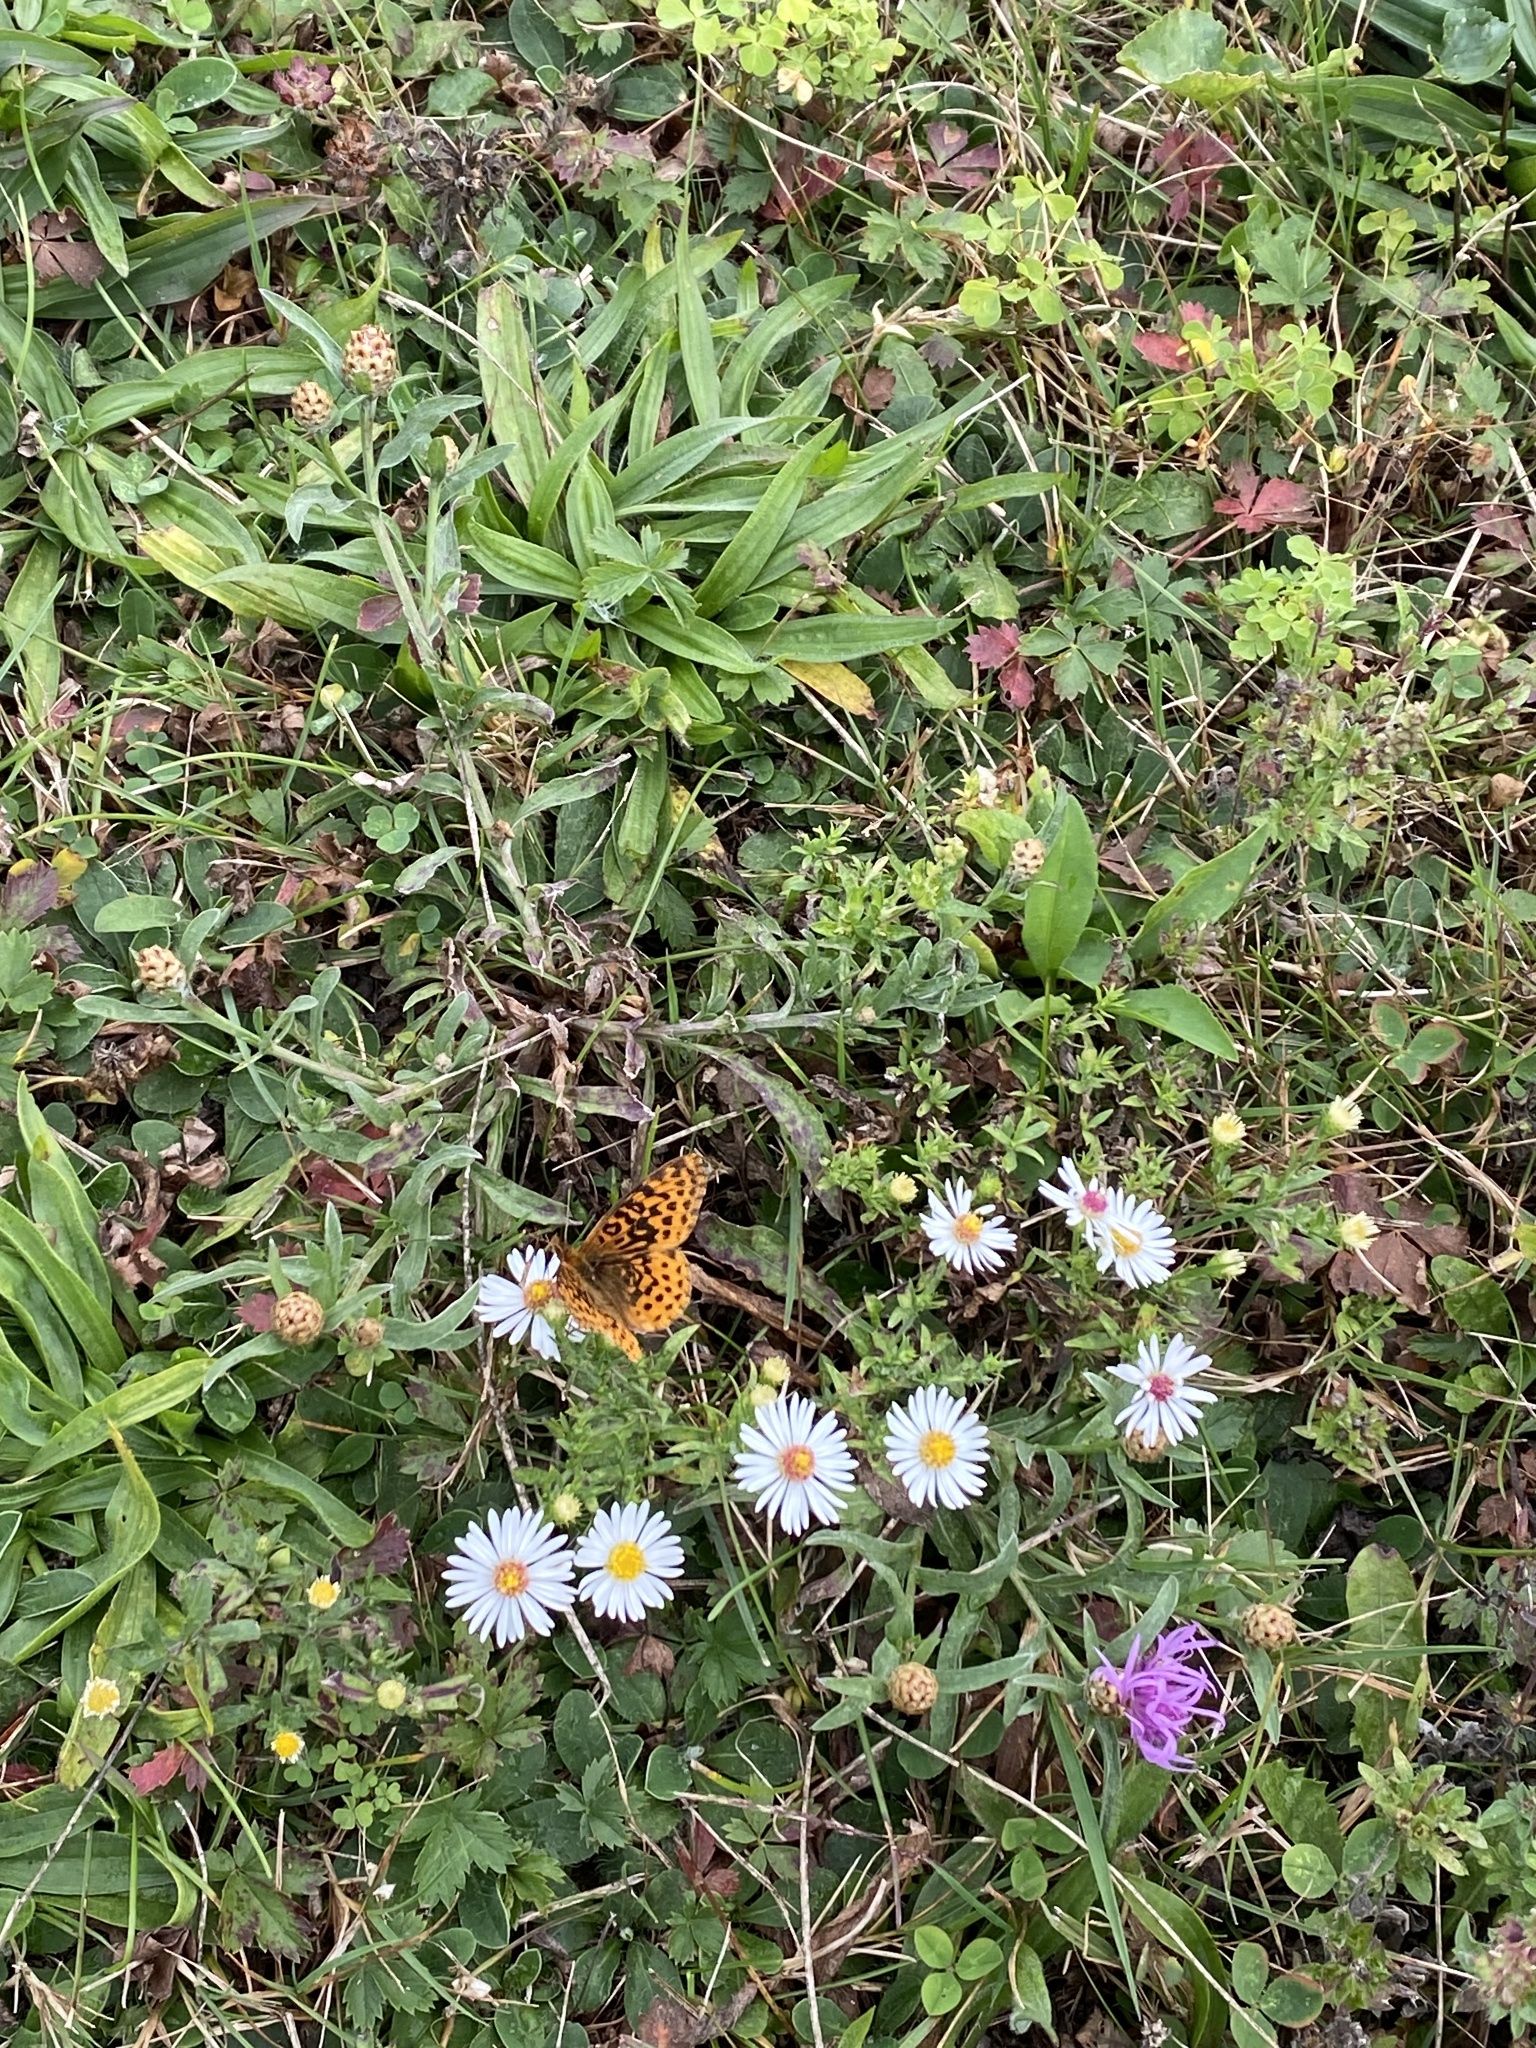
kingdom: Animalia
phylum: Arthropoda
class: Insecta
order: Lepidoptera
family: Nymphalidae
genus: Clossiana
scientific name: Clossiana toddi
